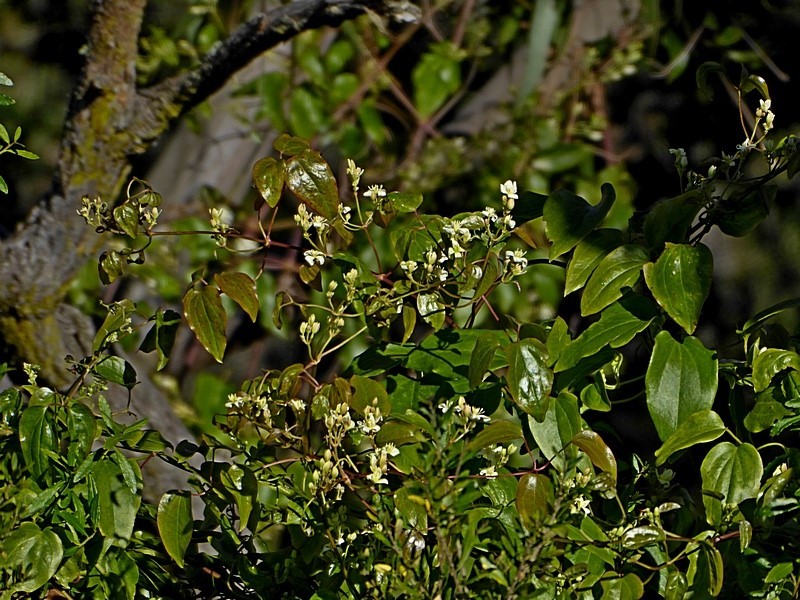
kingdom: Plantae
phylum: Tracheophyta
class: Magnoliopsida
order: Ranunculales
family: Ranunculaceae
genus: Clematis
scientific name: Clematis glycinoides
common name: Forest clematis
